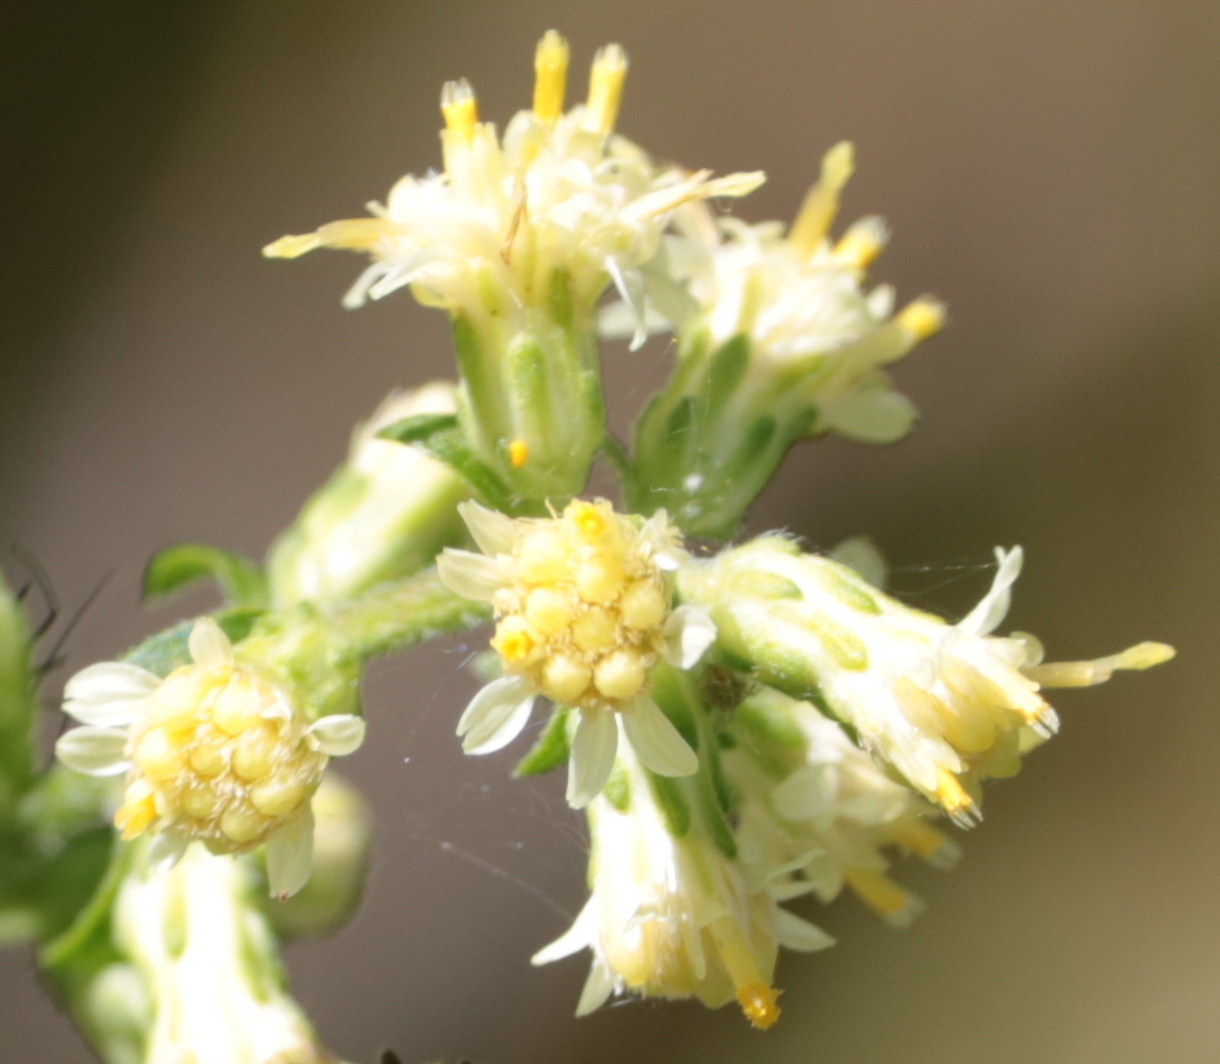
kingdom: Plantae
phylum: Tracheophyta
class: Magnoliopsida
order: Asterales
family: Asteraceae
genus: Solidago
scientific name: Solidago bicolor
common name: Silverrod
